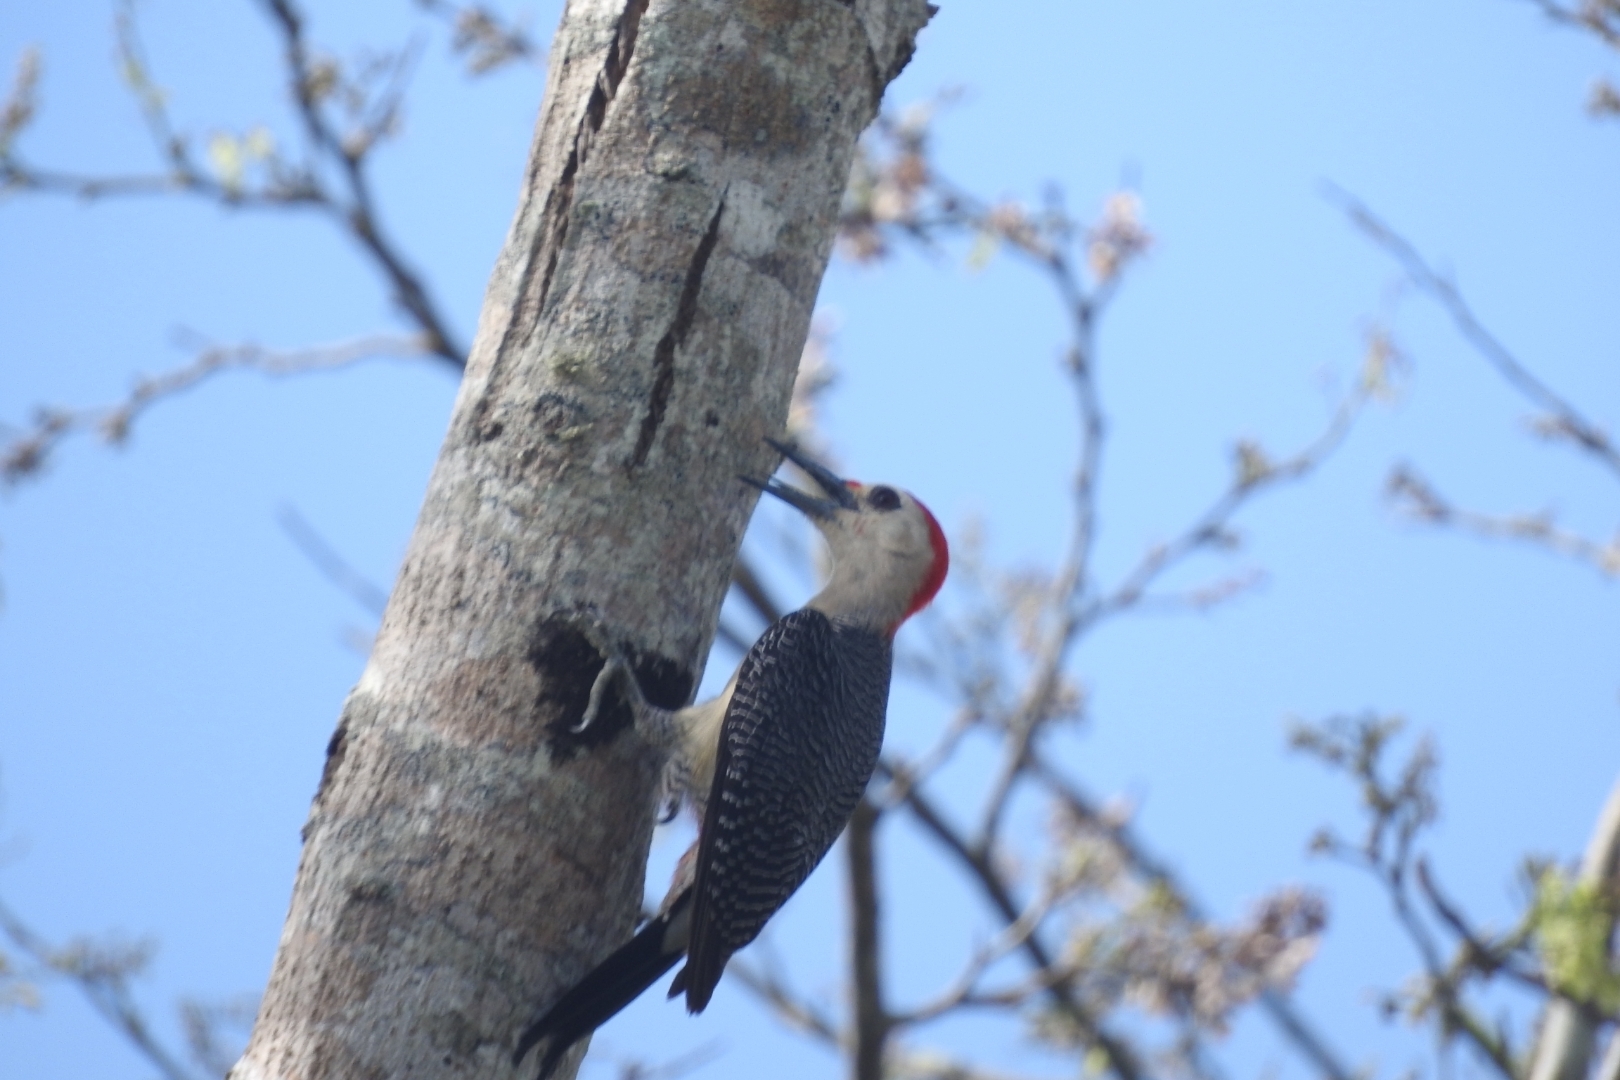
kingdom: Animalia
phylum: Chordata
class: Aves
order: Piciformes
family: Picidae
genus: Melanerpes
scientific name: Melanerpes aurifrons
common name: Golden-fronted woodpecker
